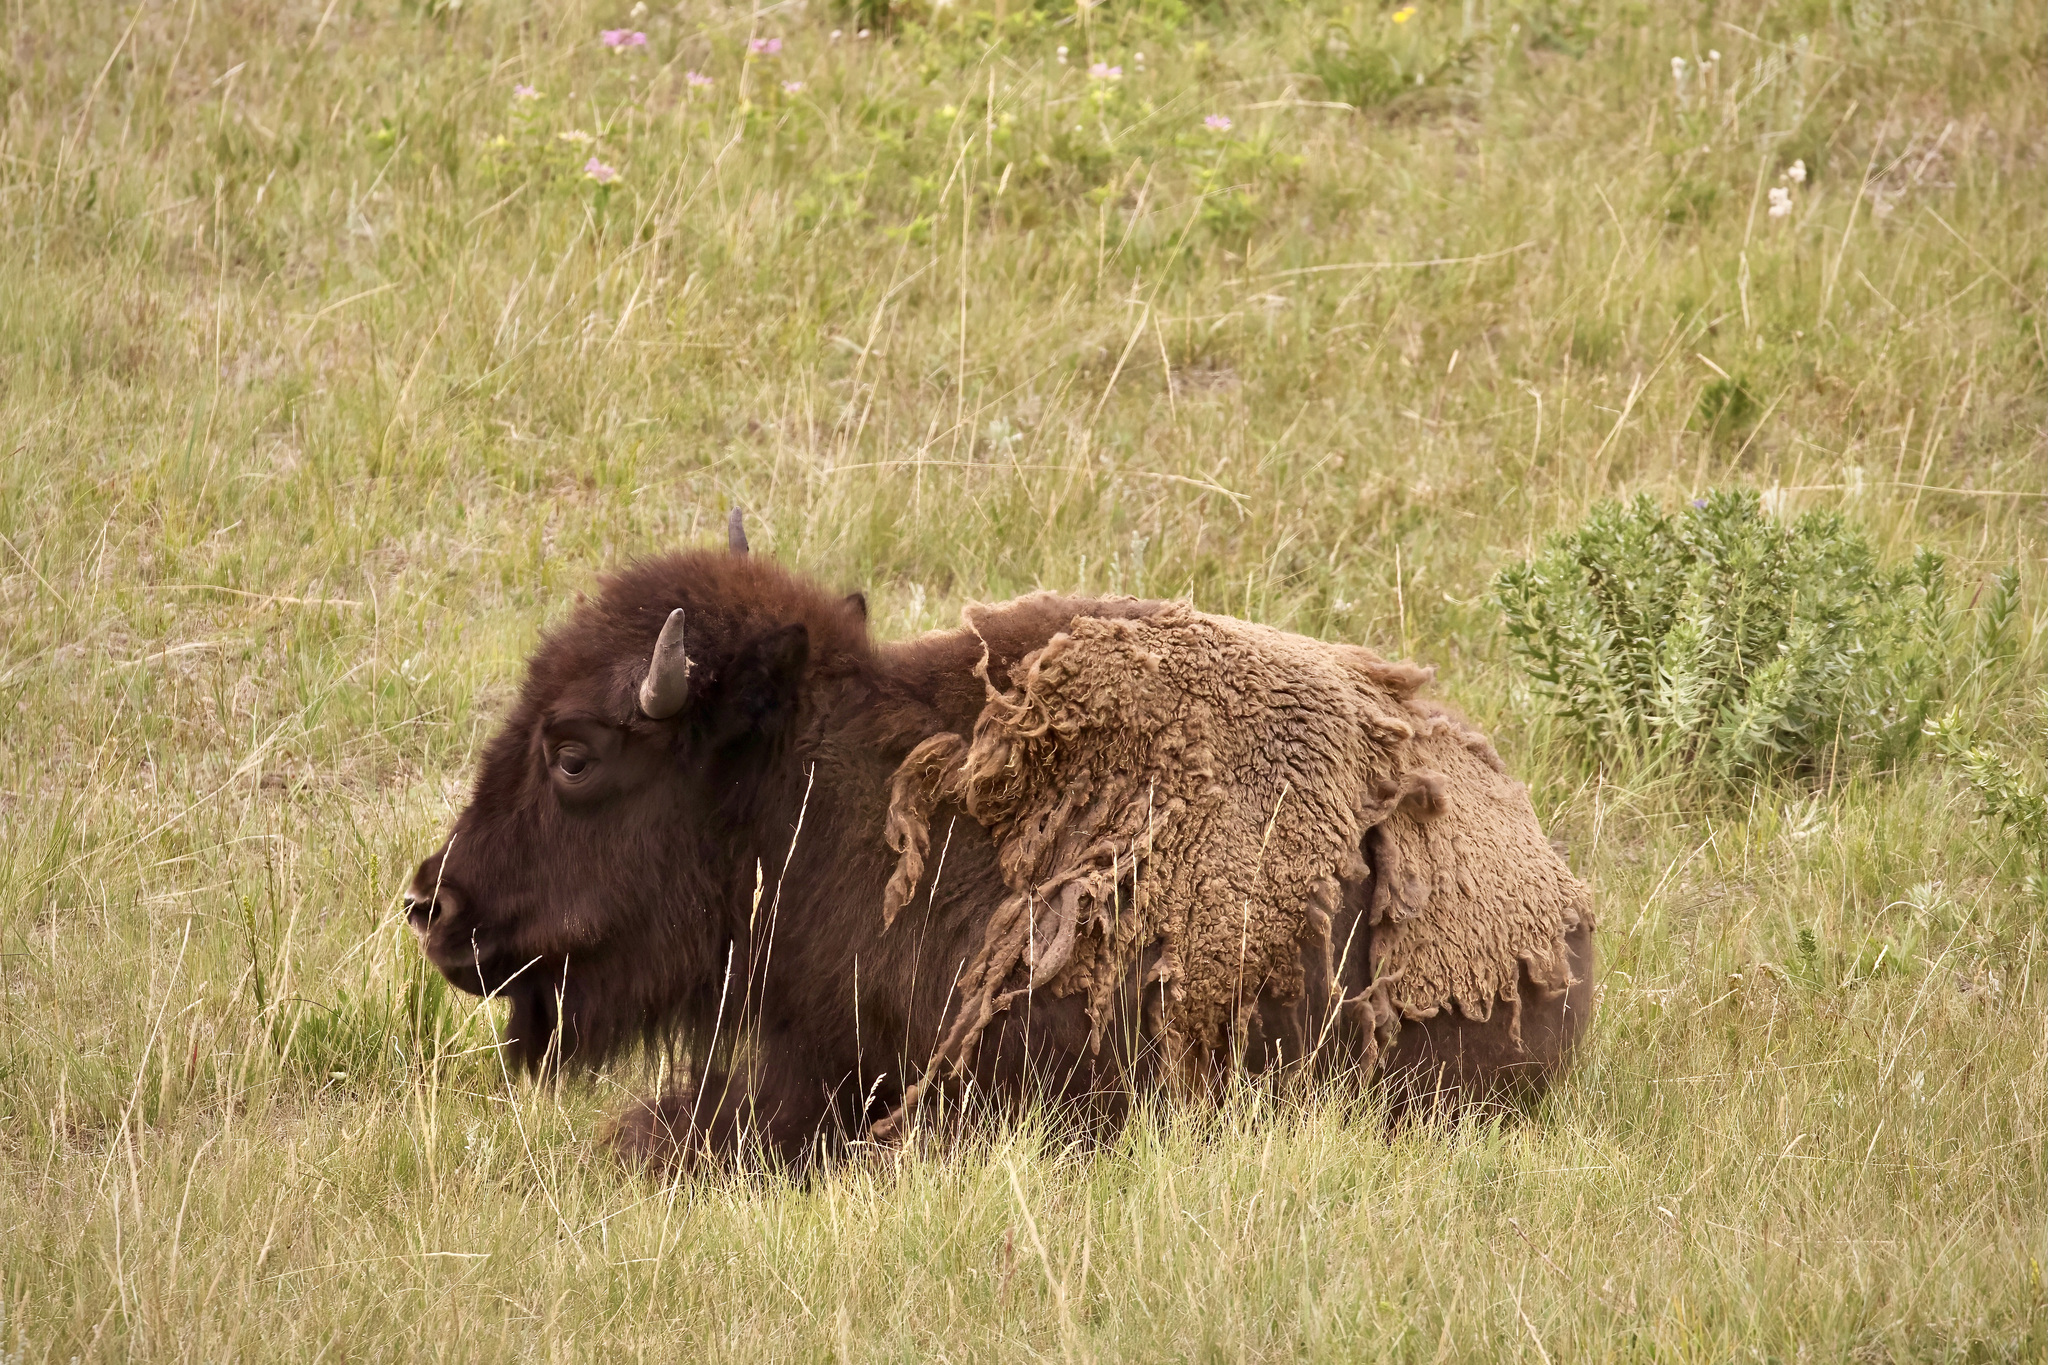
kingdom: Animalia
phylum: Chordata
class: Mammalia
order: Artiodactyla
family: Bovidae
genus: Bison
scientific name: Bison bison
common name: American bison
